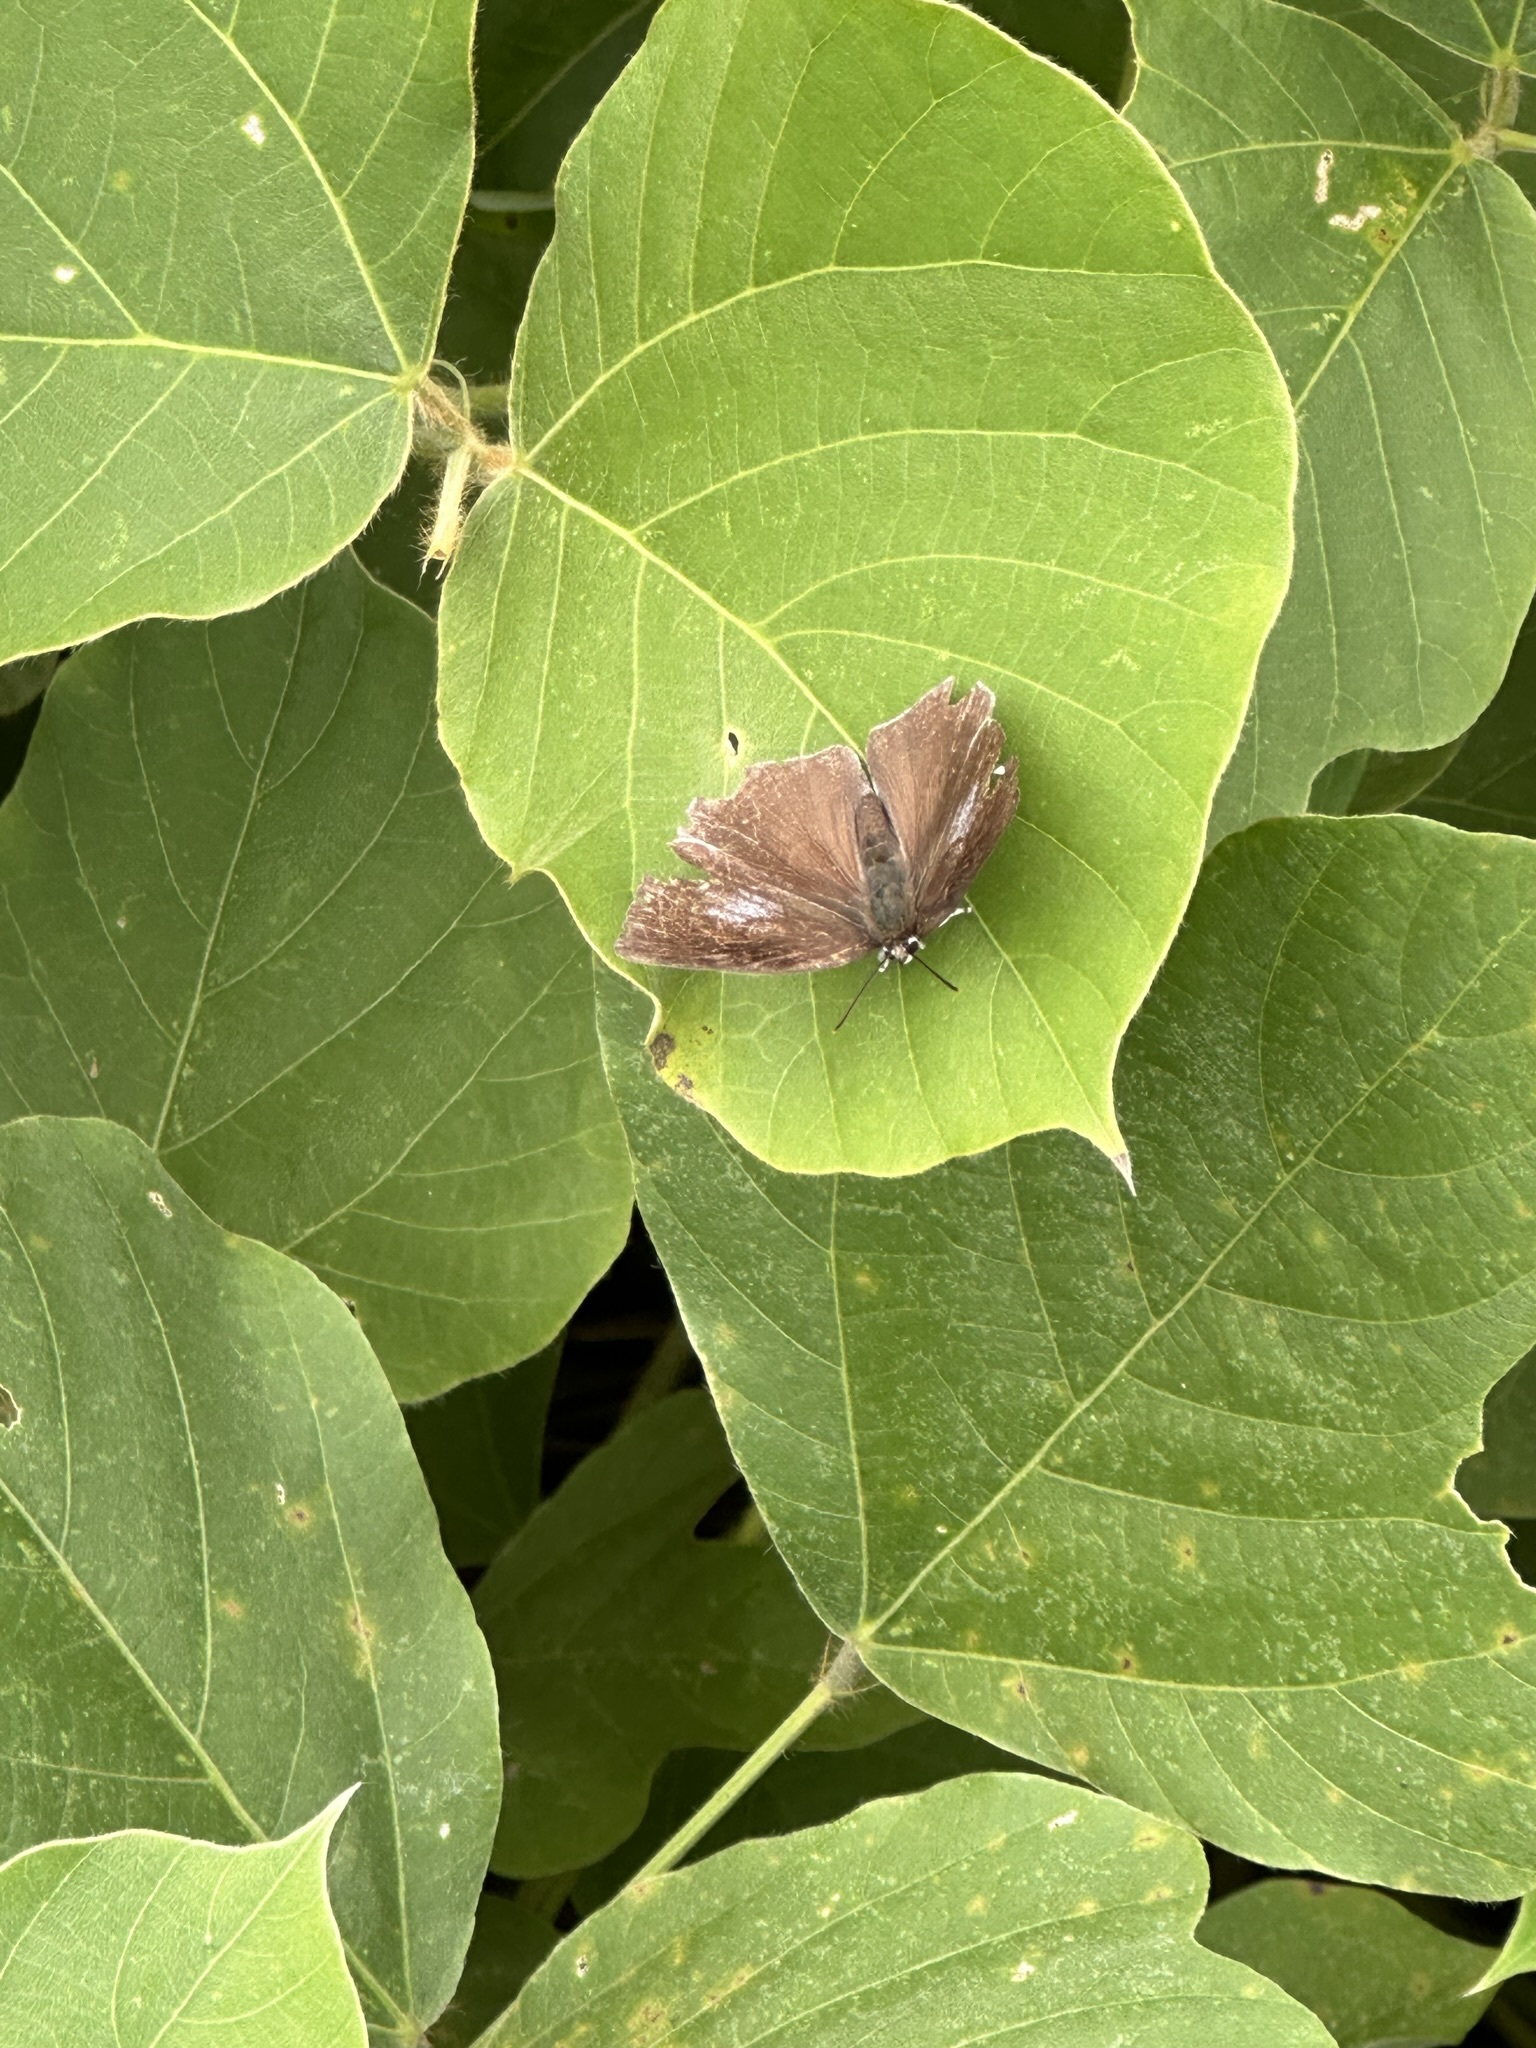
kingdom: Animalia
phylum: Arthropoda
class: Insecta
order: Lepidoptera
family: Lycaenidae
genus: Curetis
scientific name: Curetis acuta
